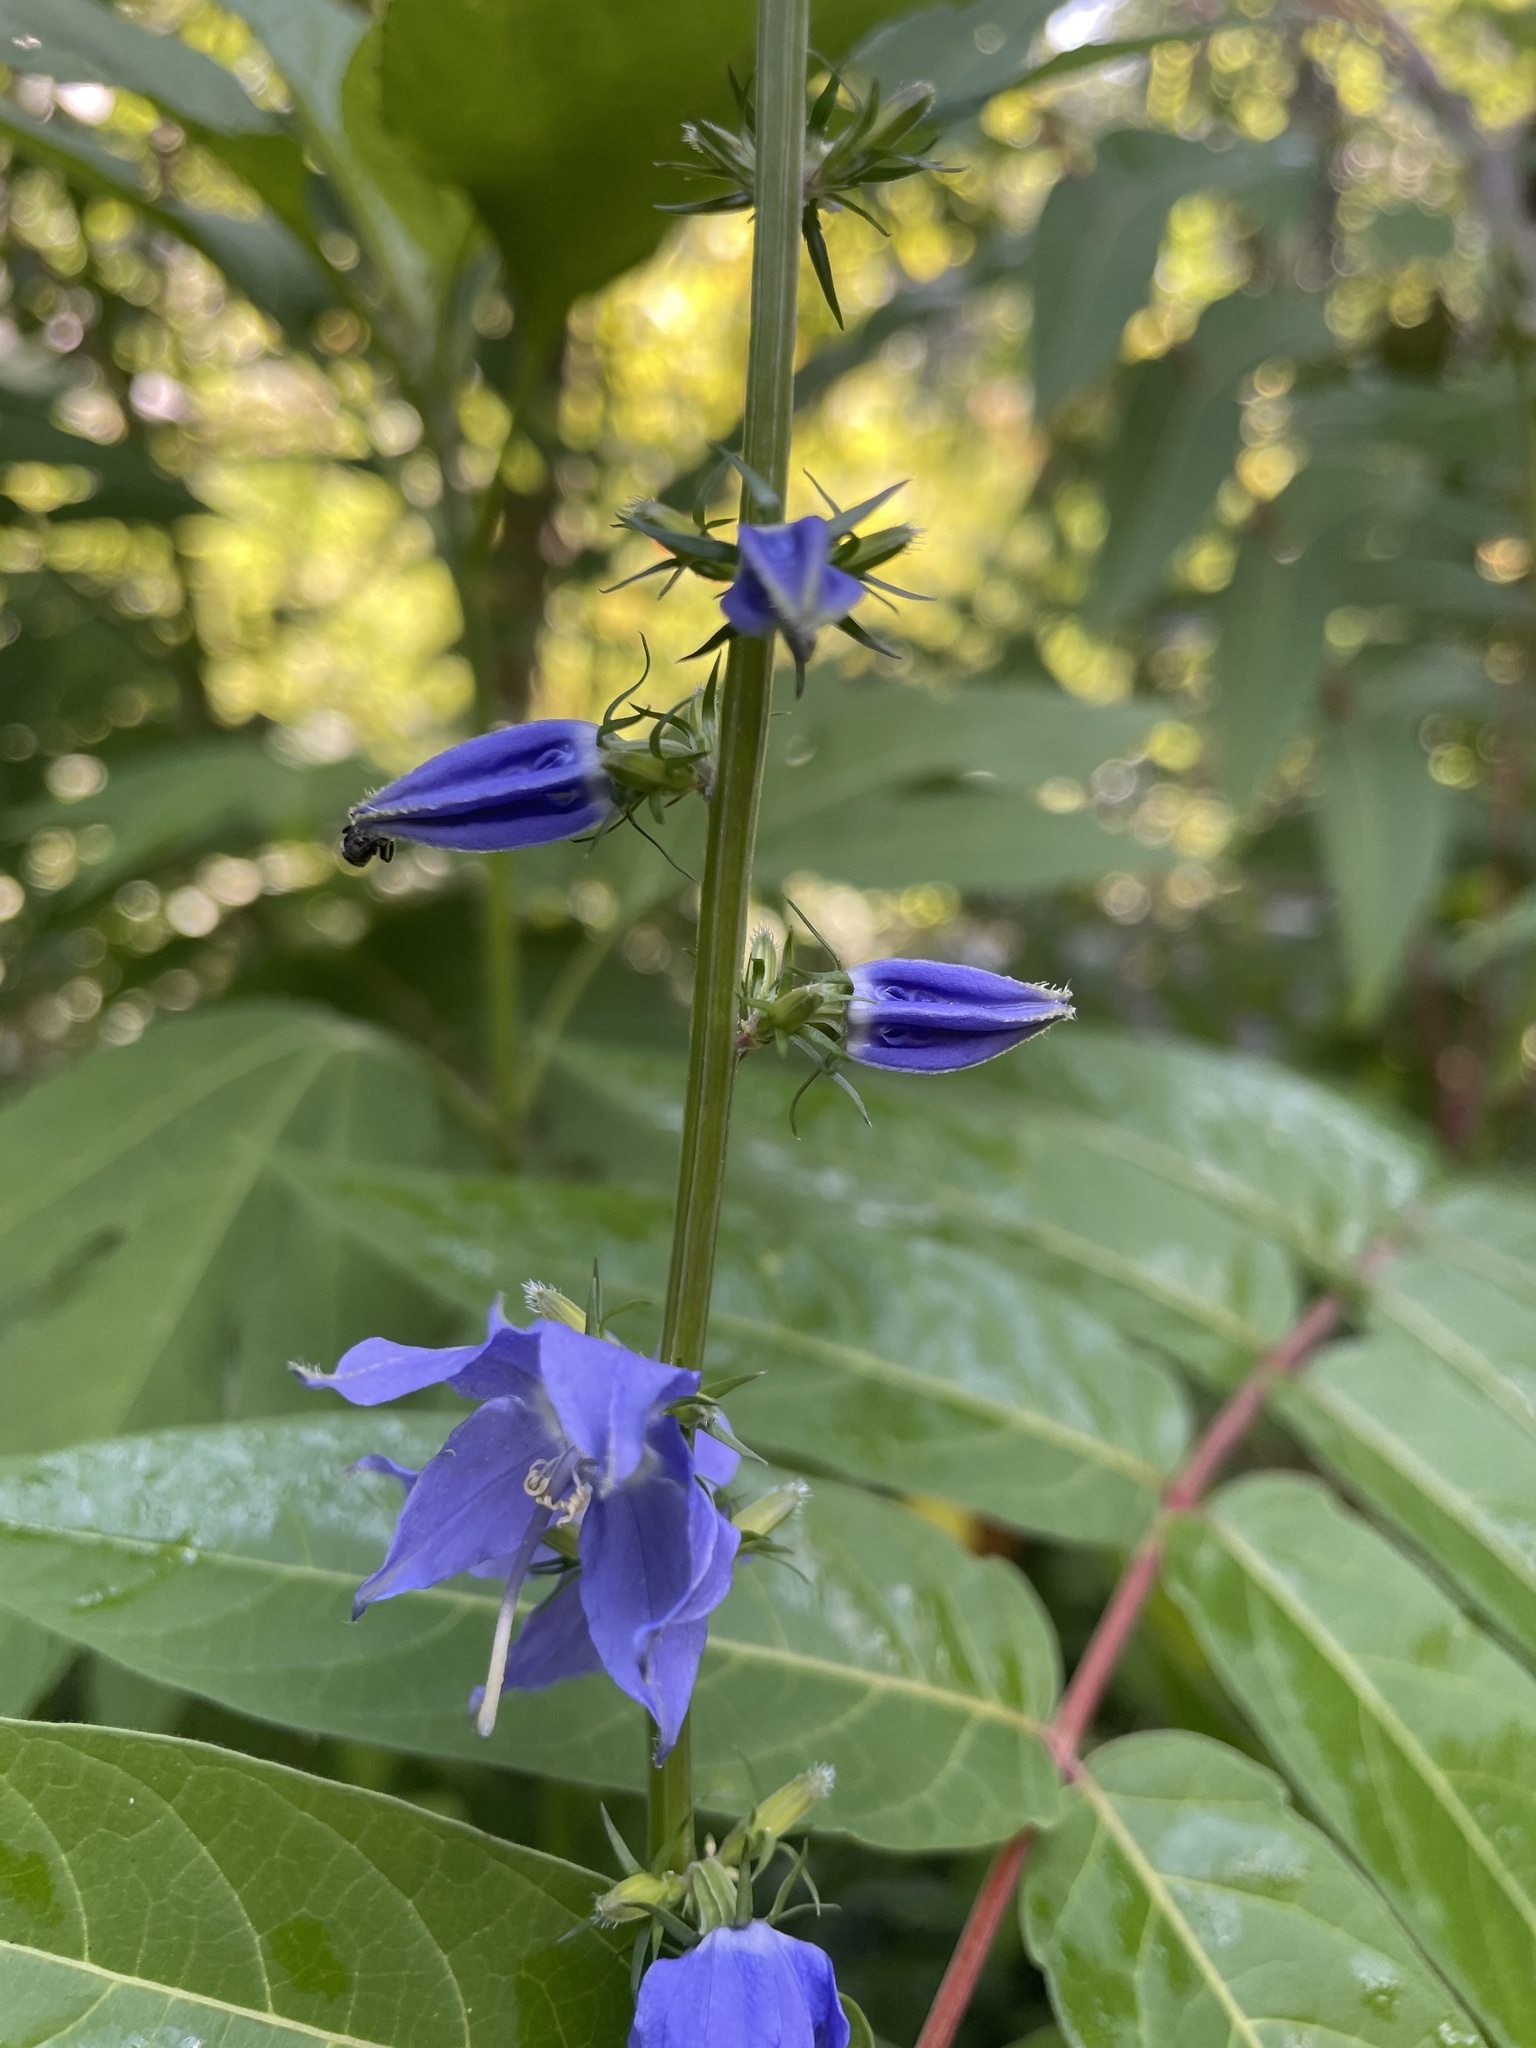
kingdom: Plantae
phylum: Tracheophyta
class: Magnoliopsida
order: Asterales
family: Campanulaceae
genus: Campanulastrum
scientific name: Campanulastrum americanum
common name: American bellflower
